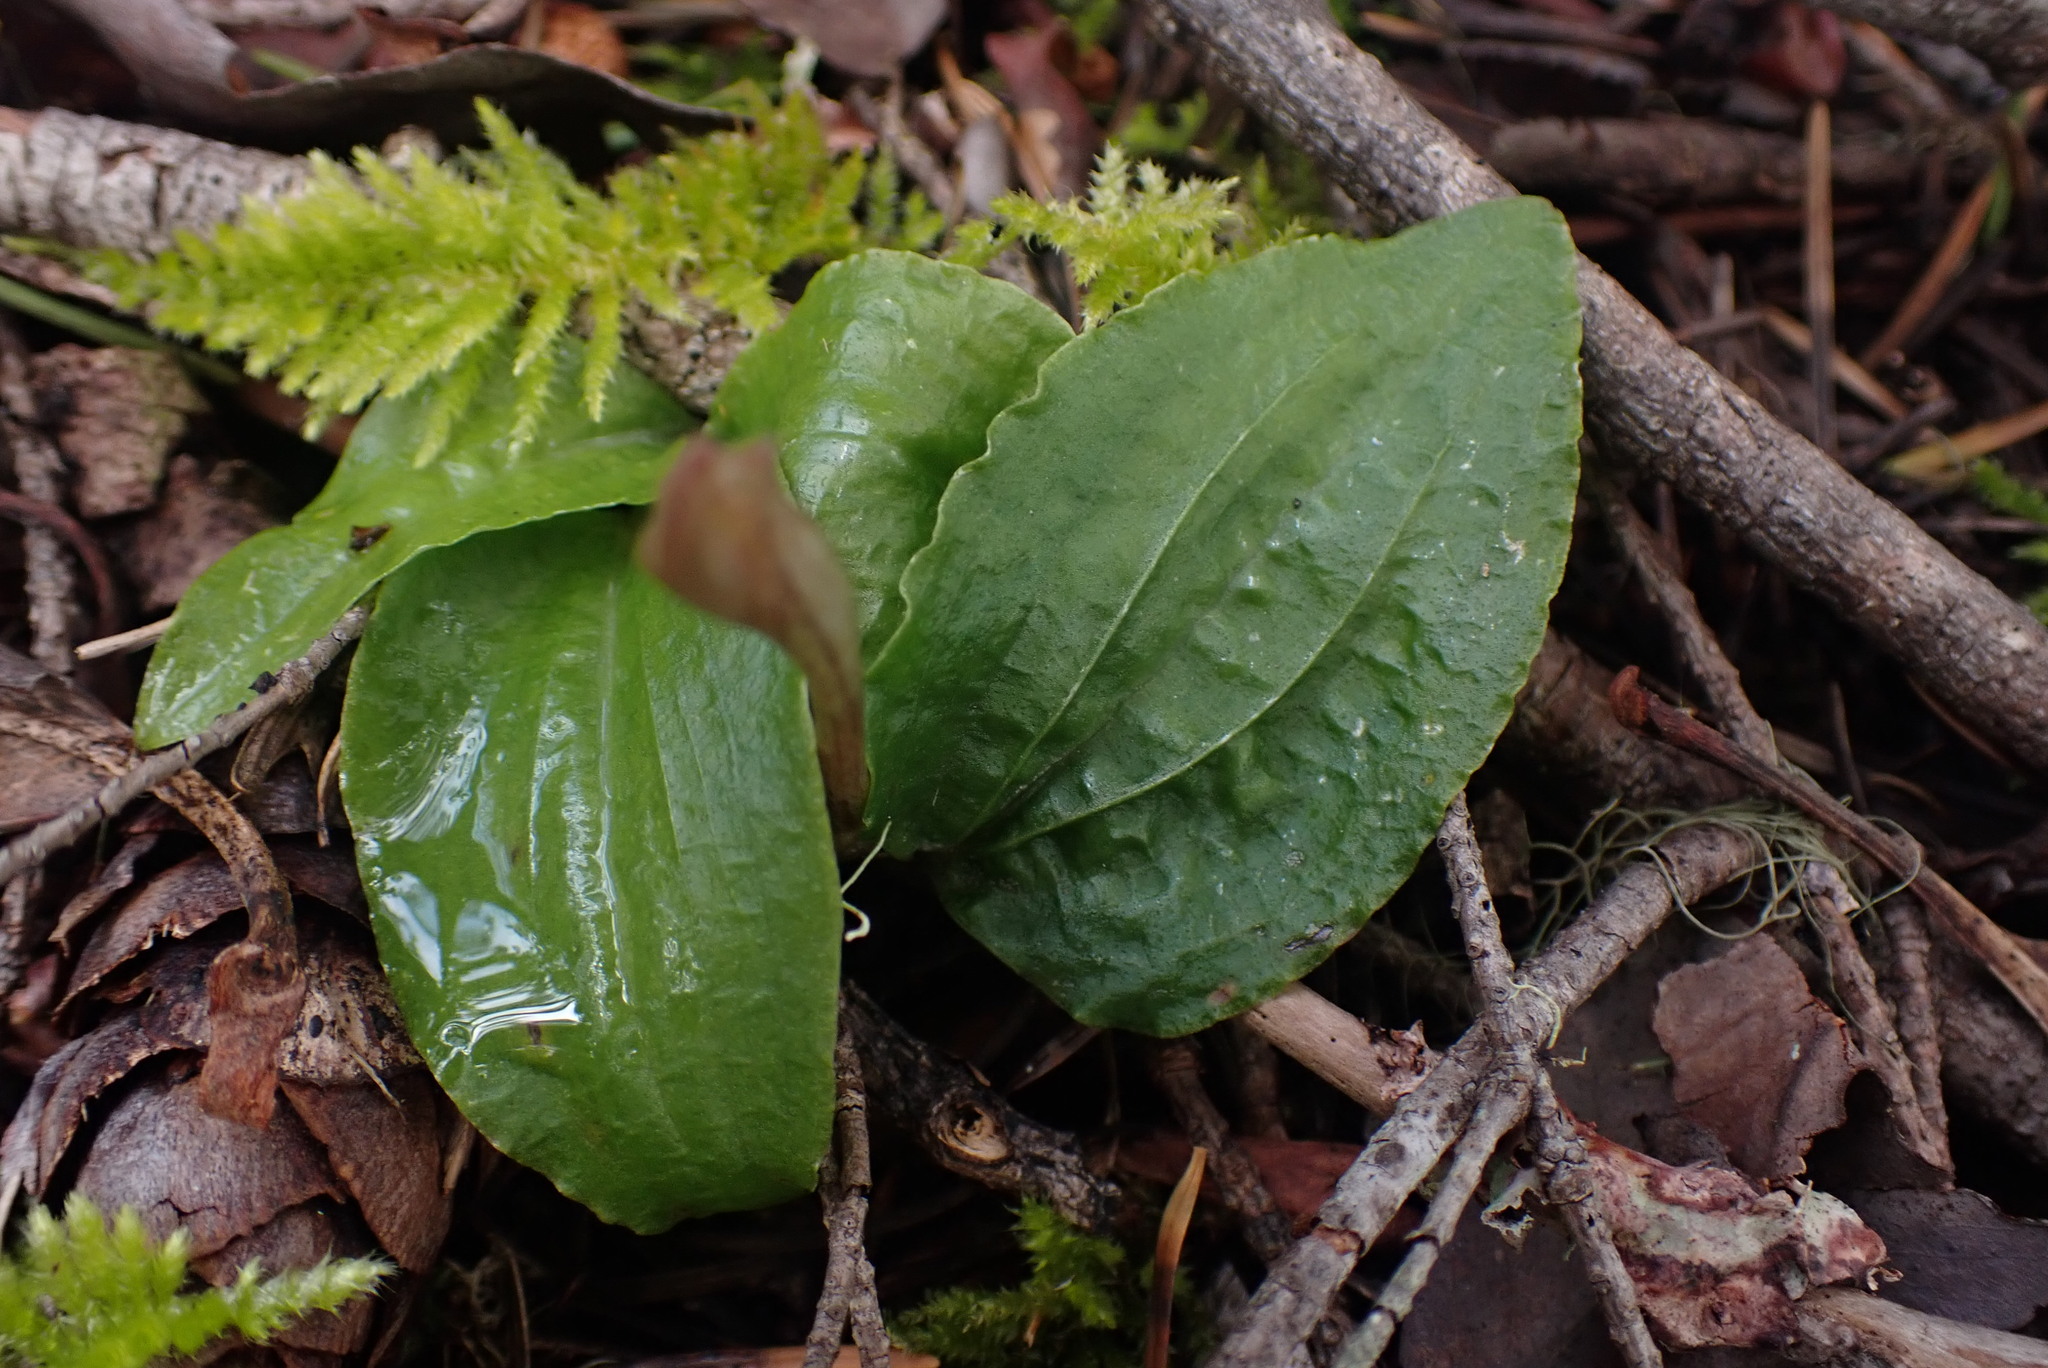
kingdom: Plantae
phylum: Tracheophyta
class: Liliopsida
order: Asparagales
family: Orchidaceae
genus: Calypso
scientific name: Calypso bulbosa
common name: Calypso
